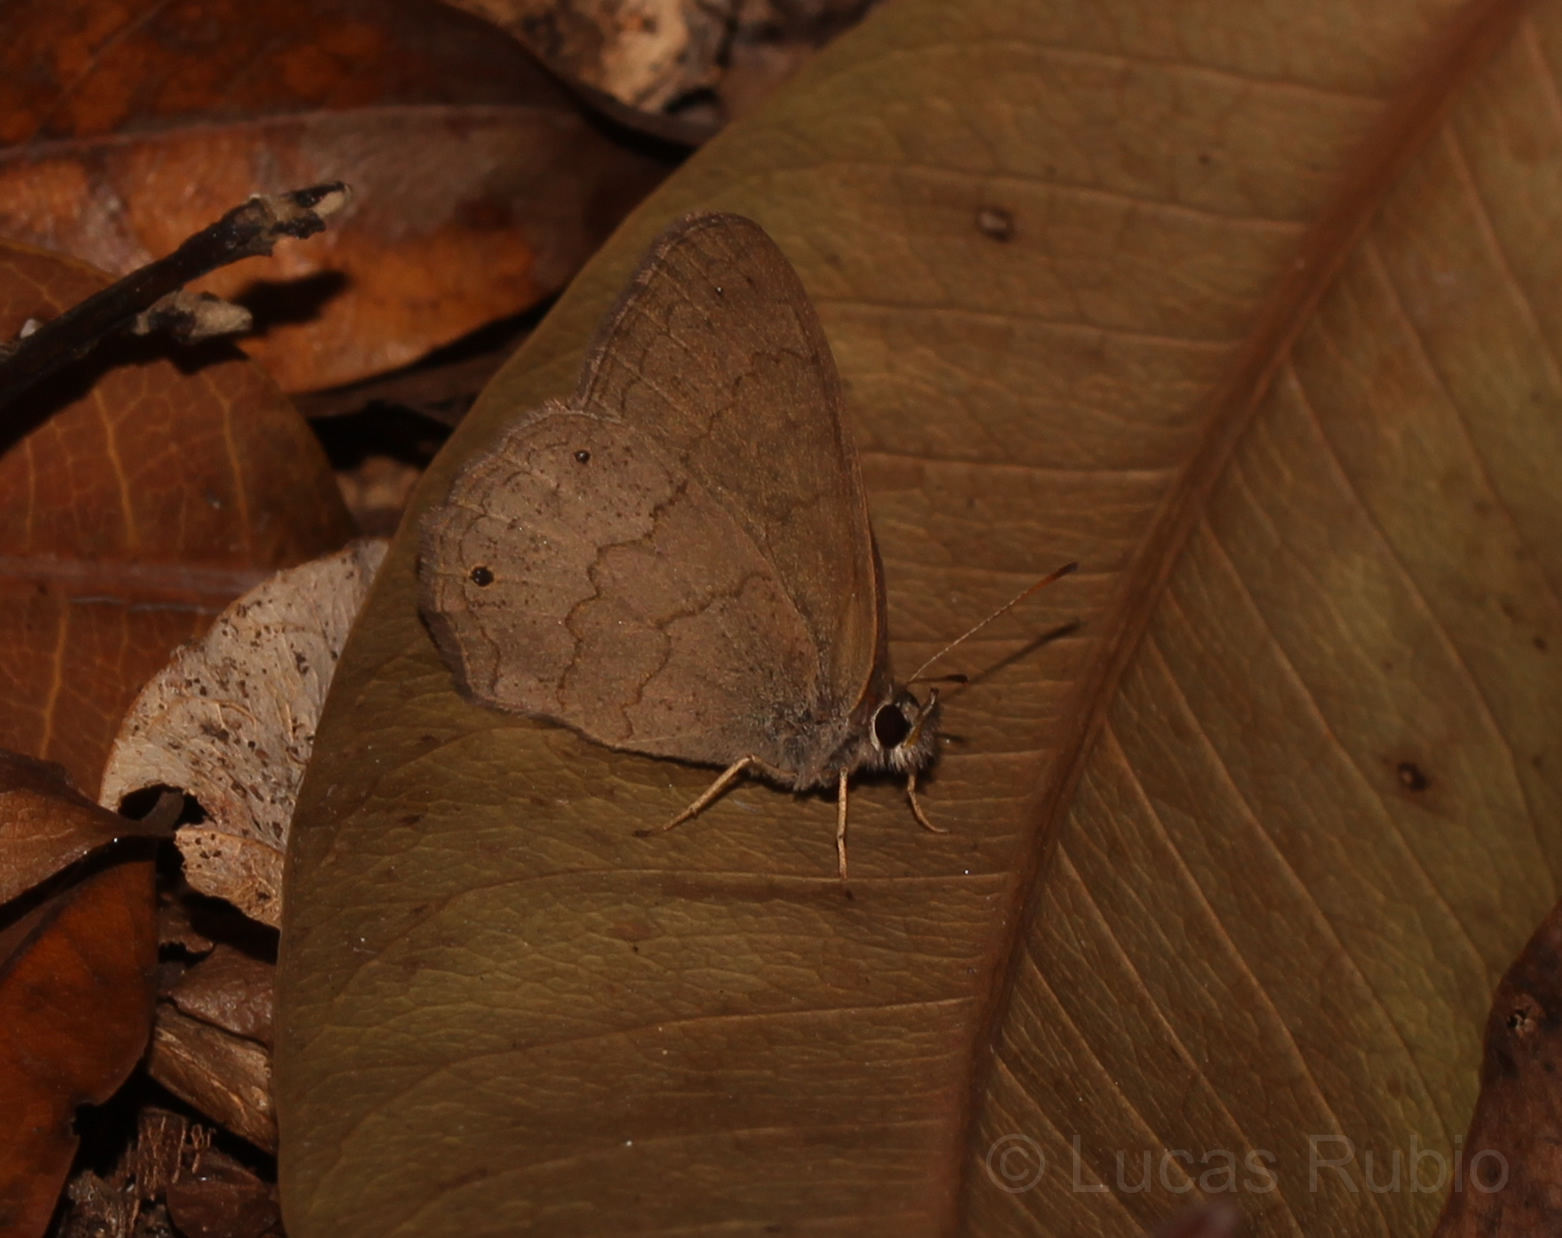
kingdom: Animalia
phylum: Arthropoda
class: Insecta
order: Lepidoptera
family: Nymphalidae
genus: Euptychia
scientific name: Euptychia Cissia eous
